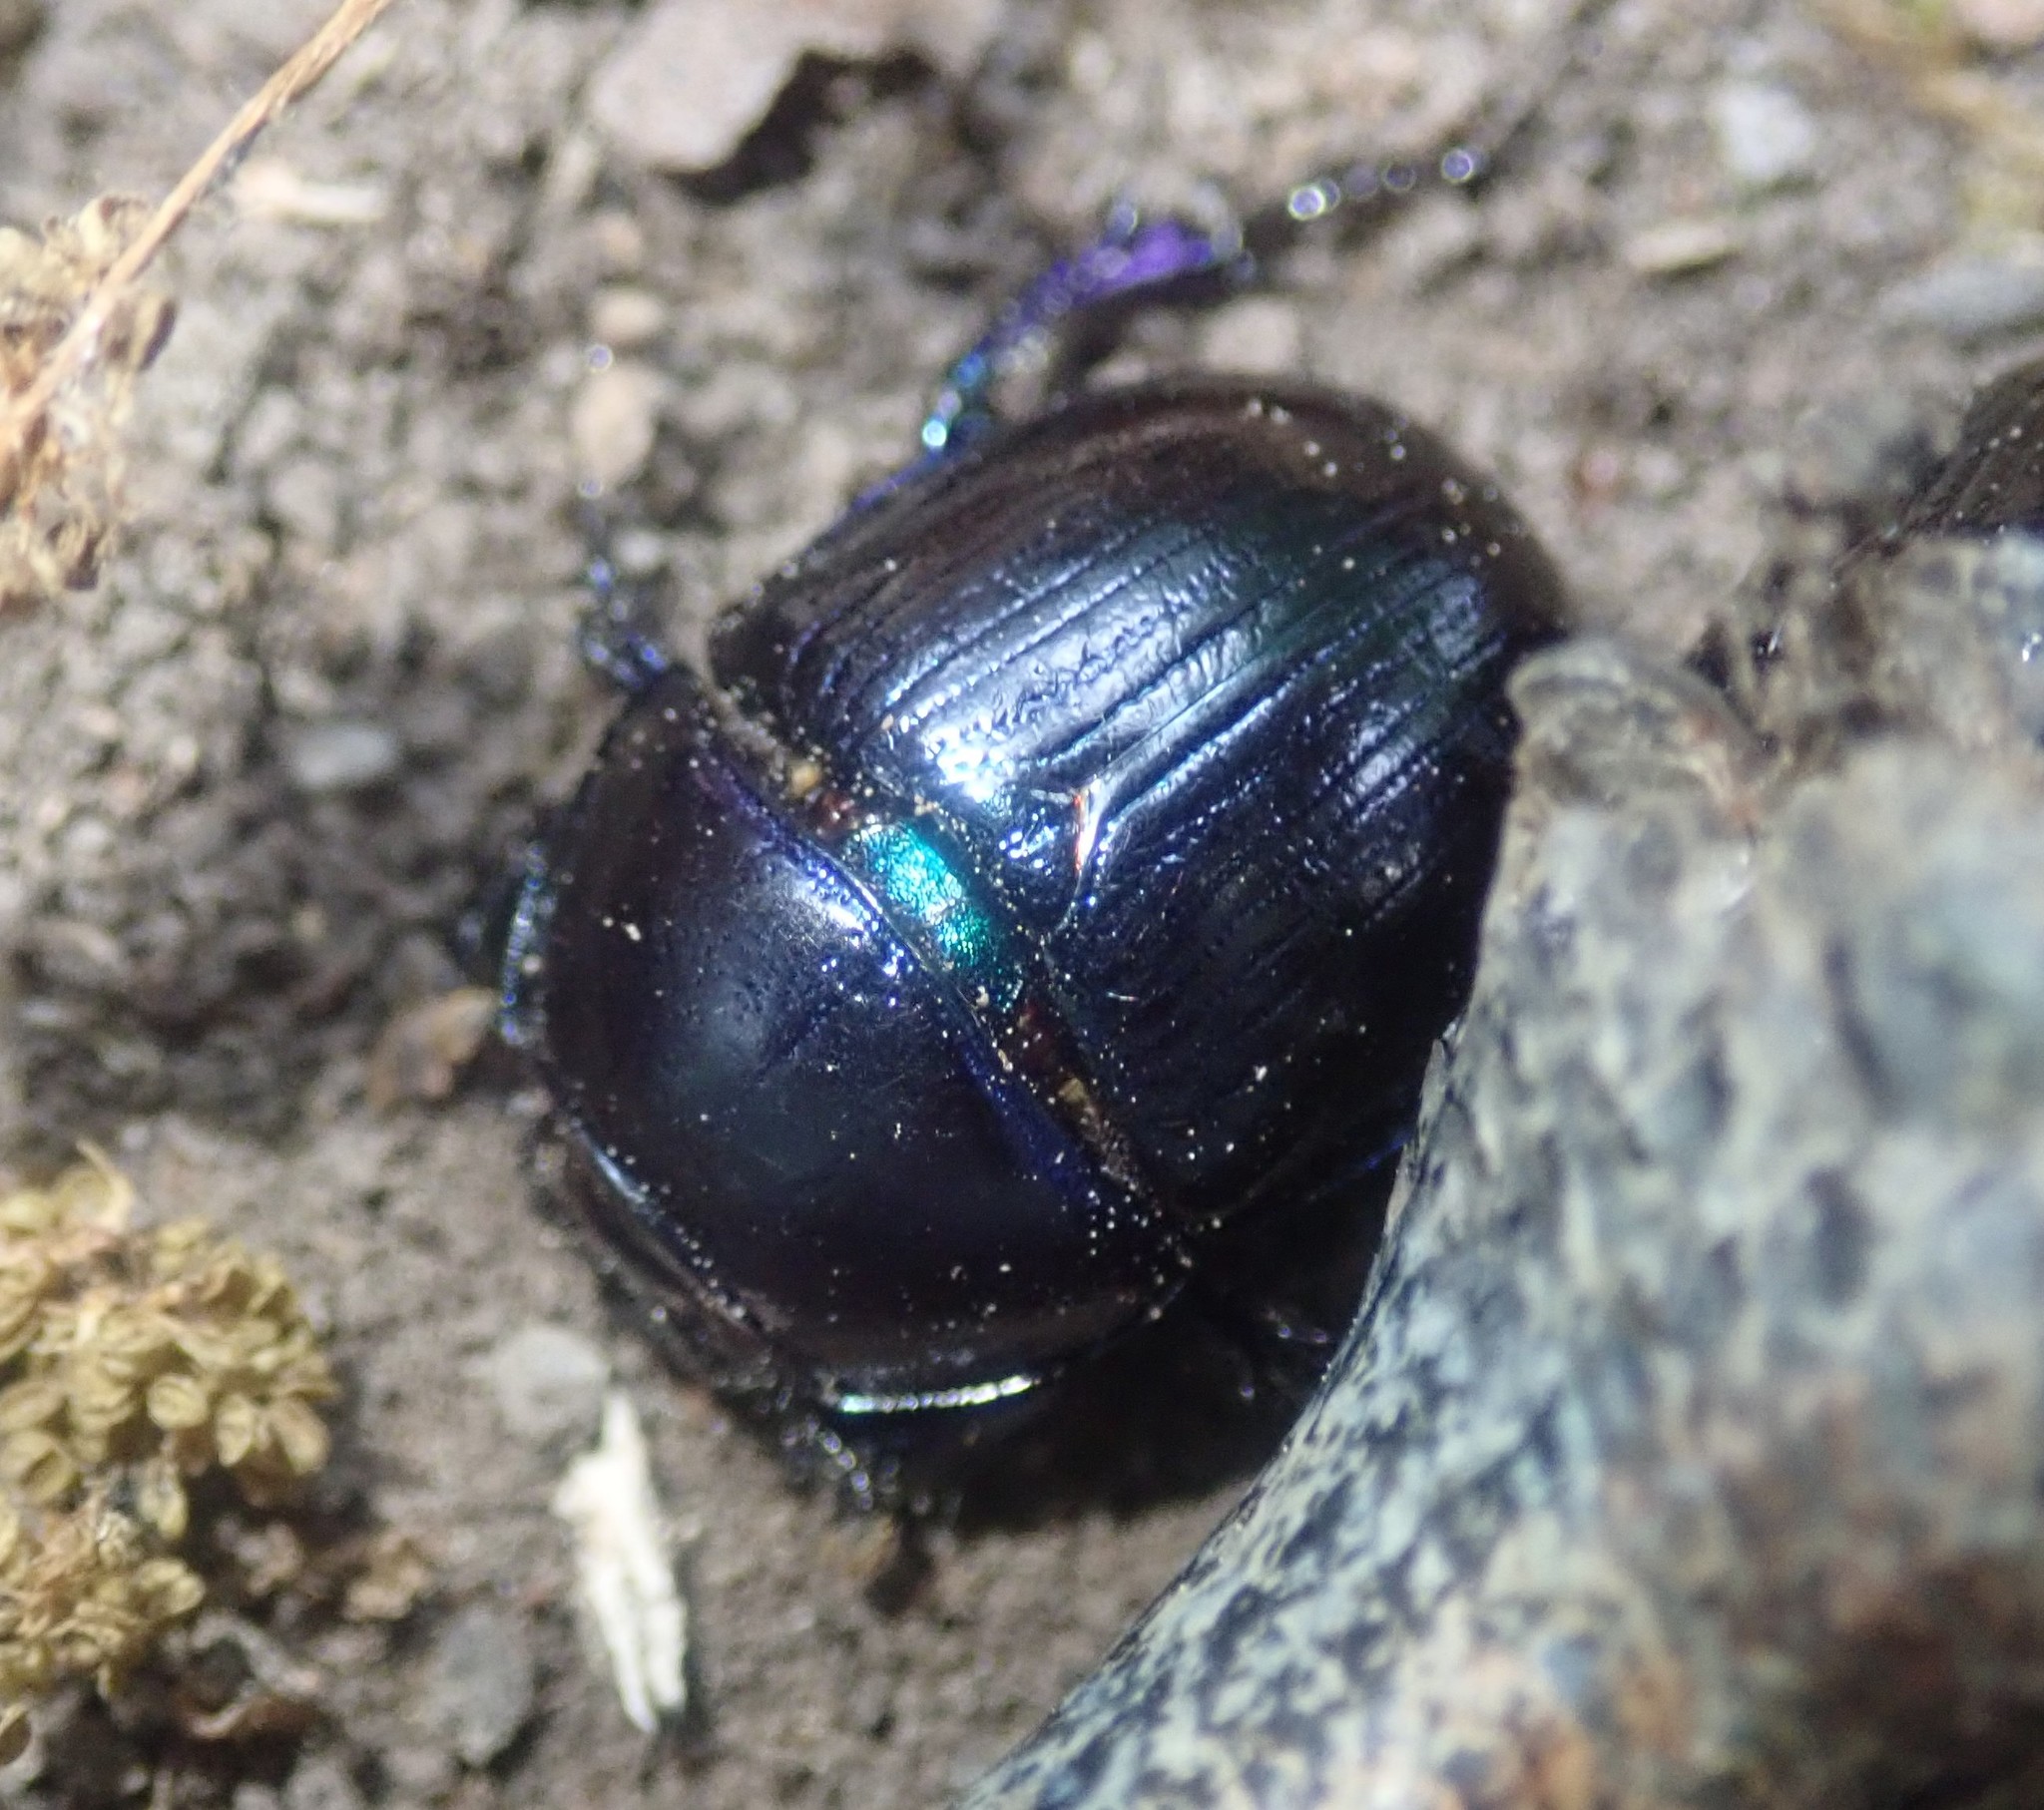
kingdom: Animalia
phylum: Arthropoda
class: Insecta
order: Coleoptera
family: Geotrupidae
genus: Anoplotrupes
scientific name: Anoplotrupes stercorosus
